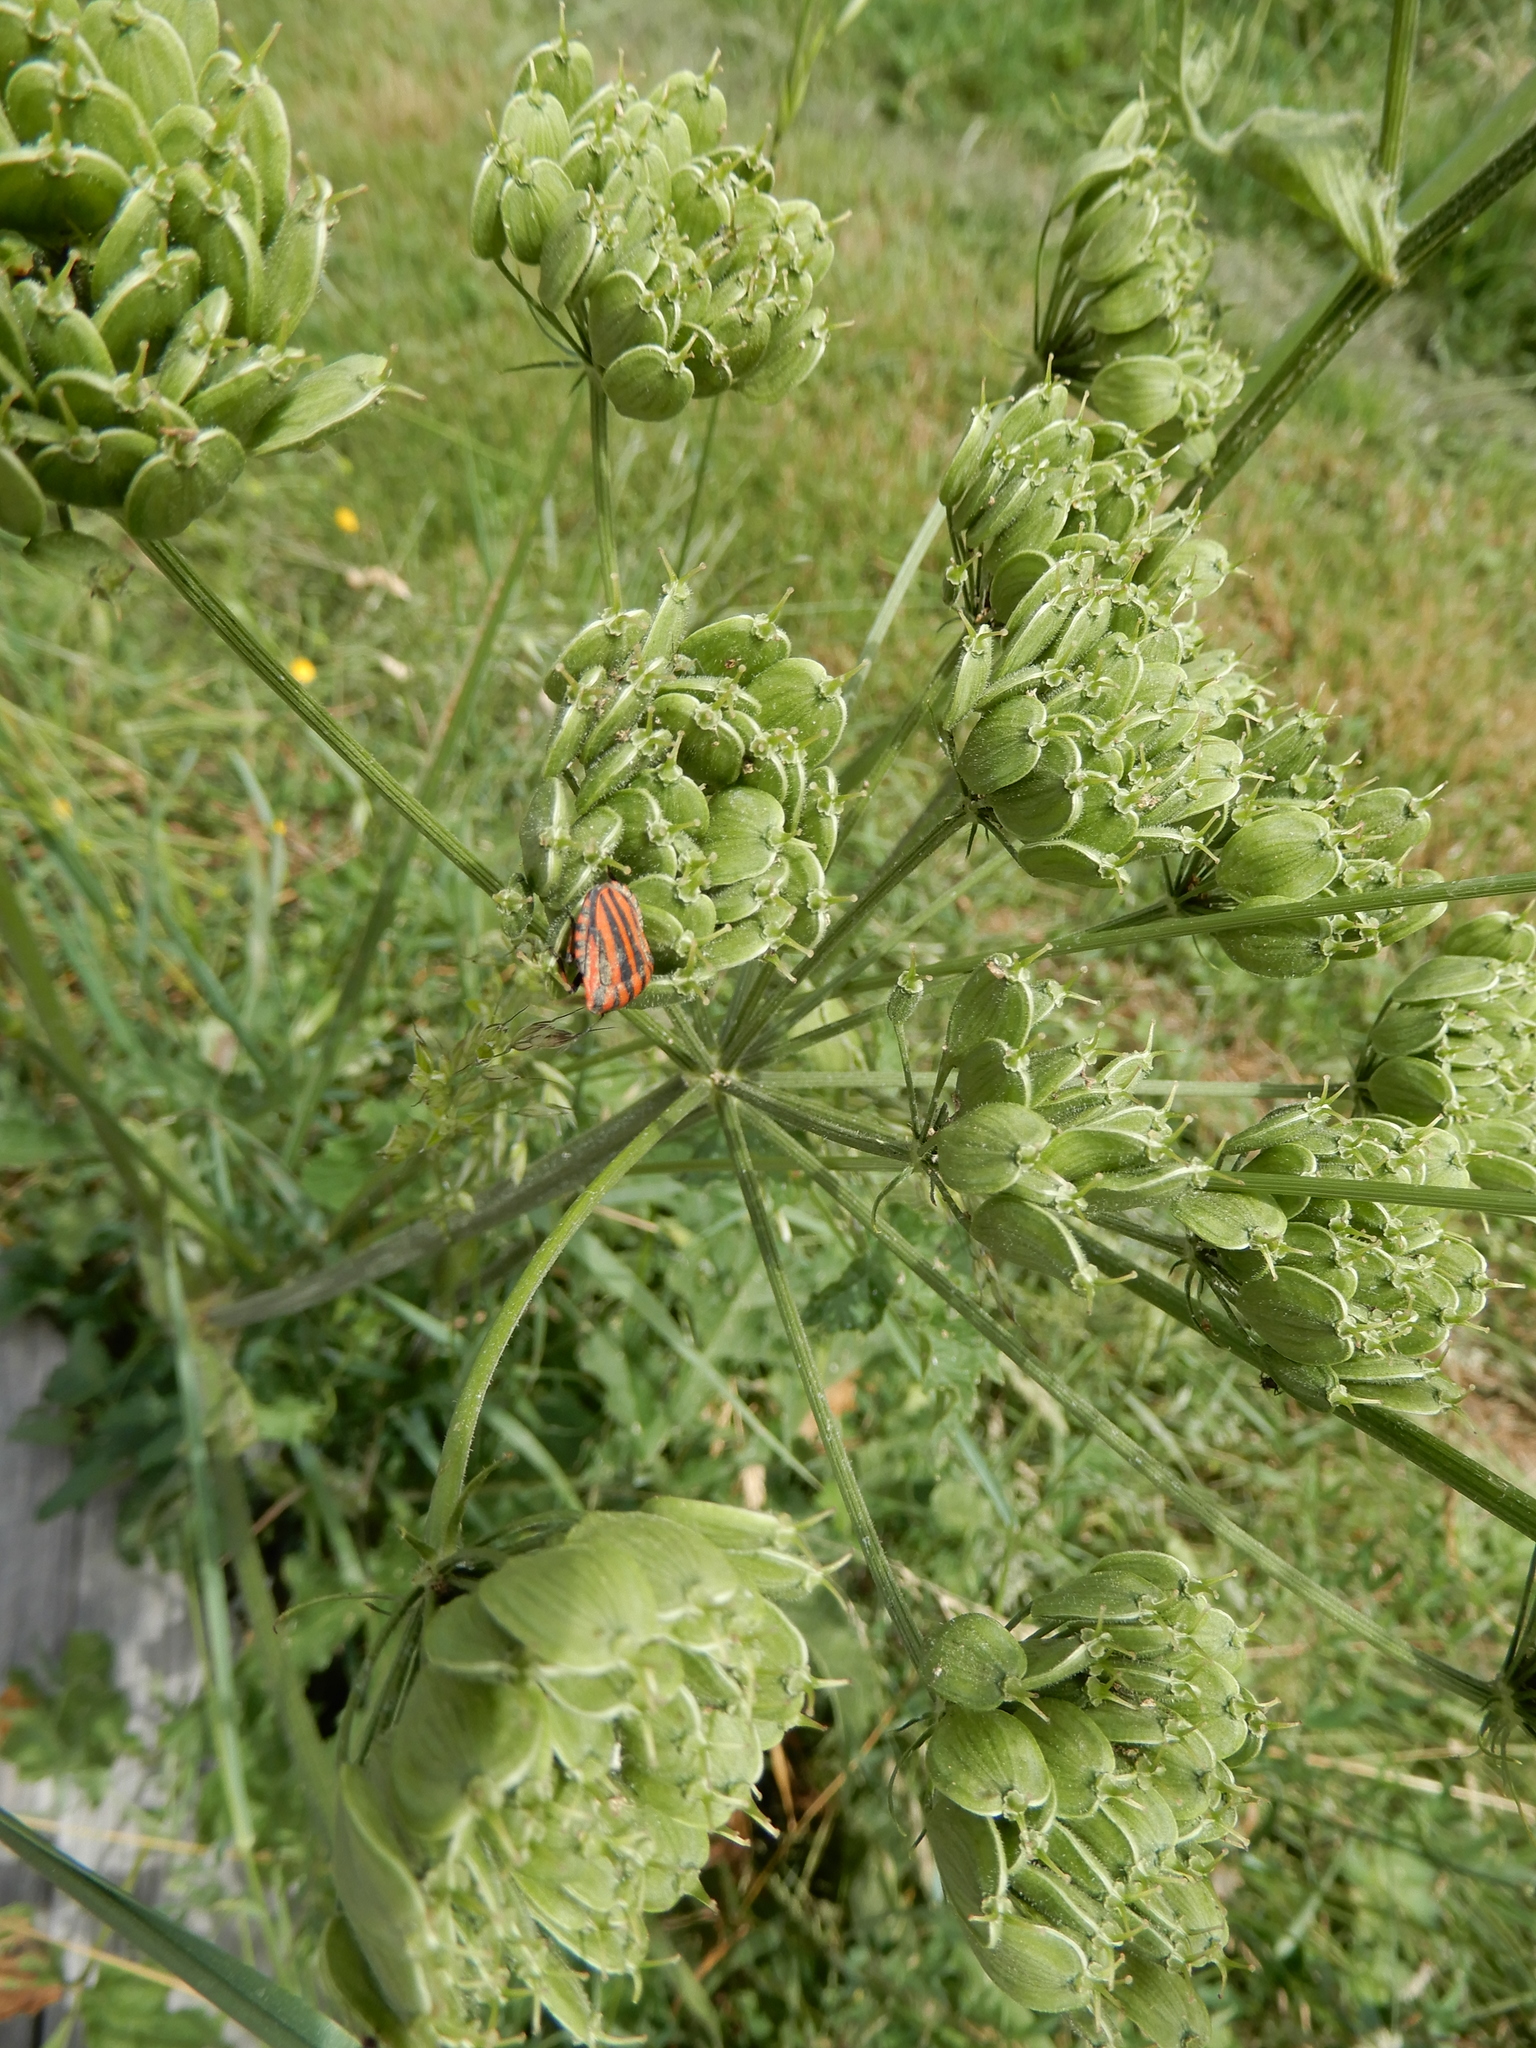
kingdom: Animalia
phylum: Arthropoda
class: Insecta
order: Hemiptera
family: Pentatomidae
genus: Graphosoma
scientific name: Graphosoma italicum
